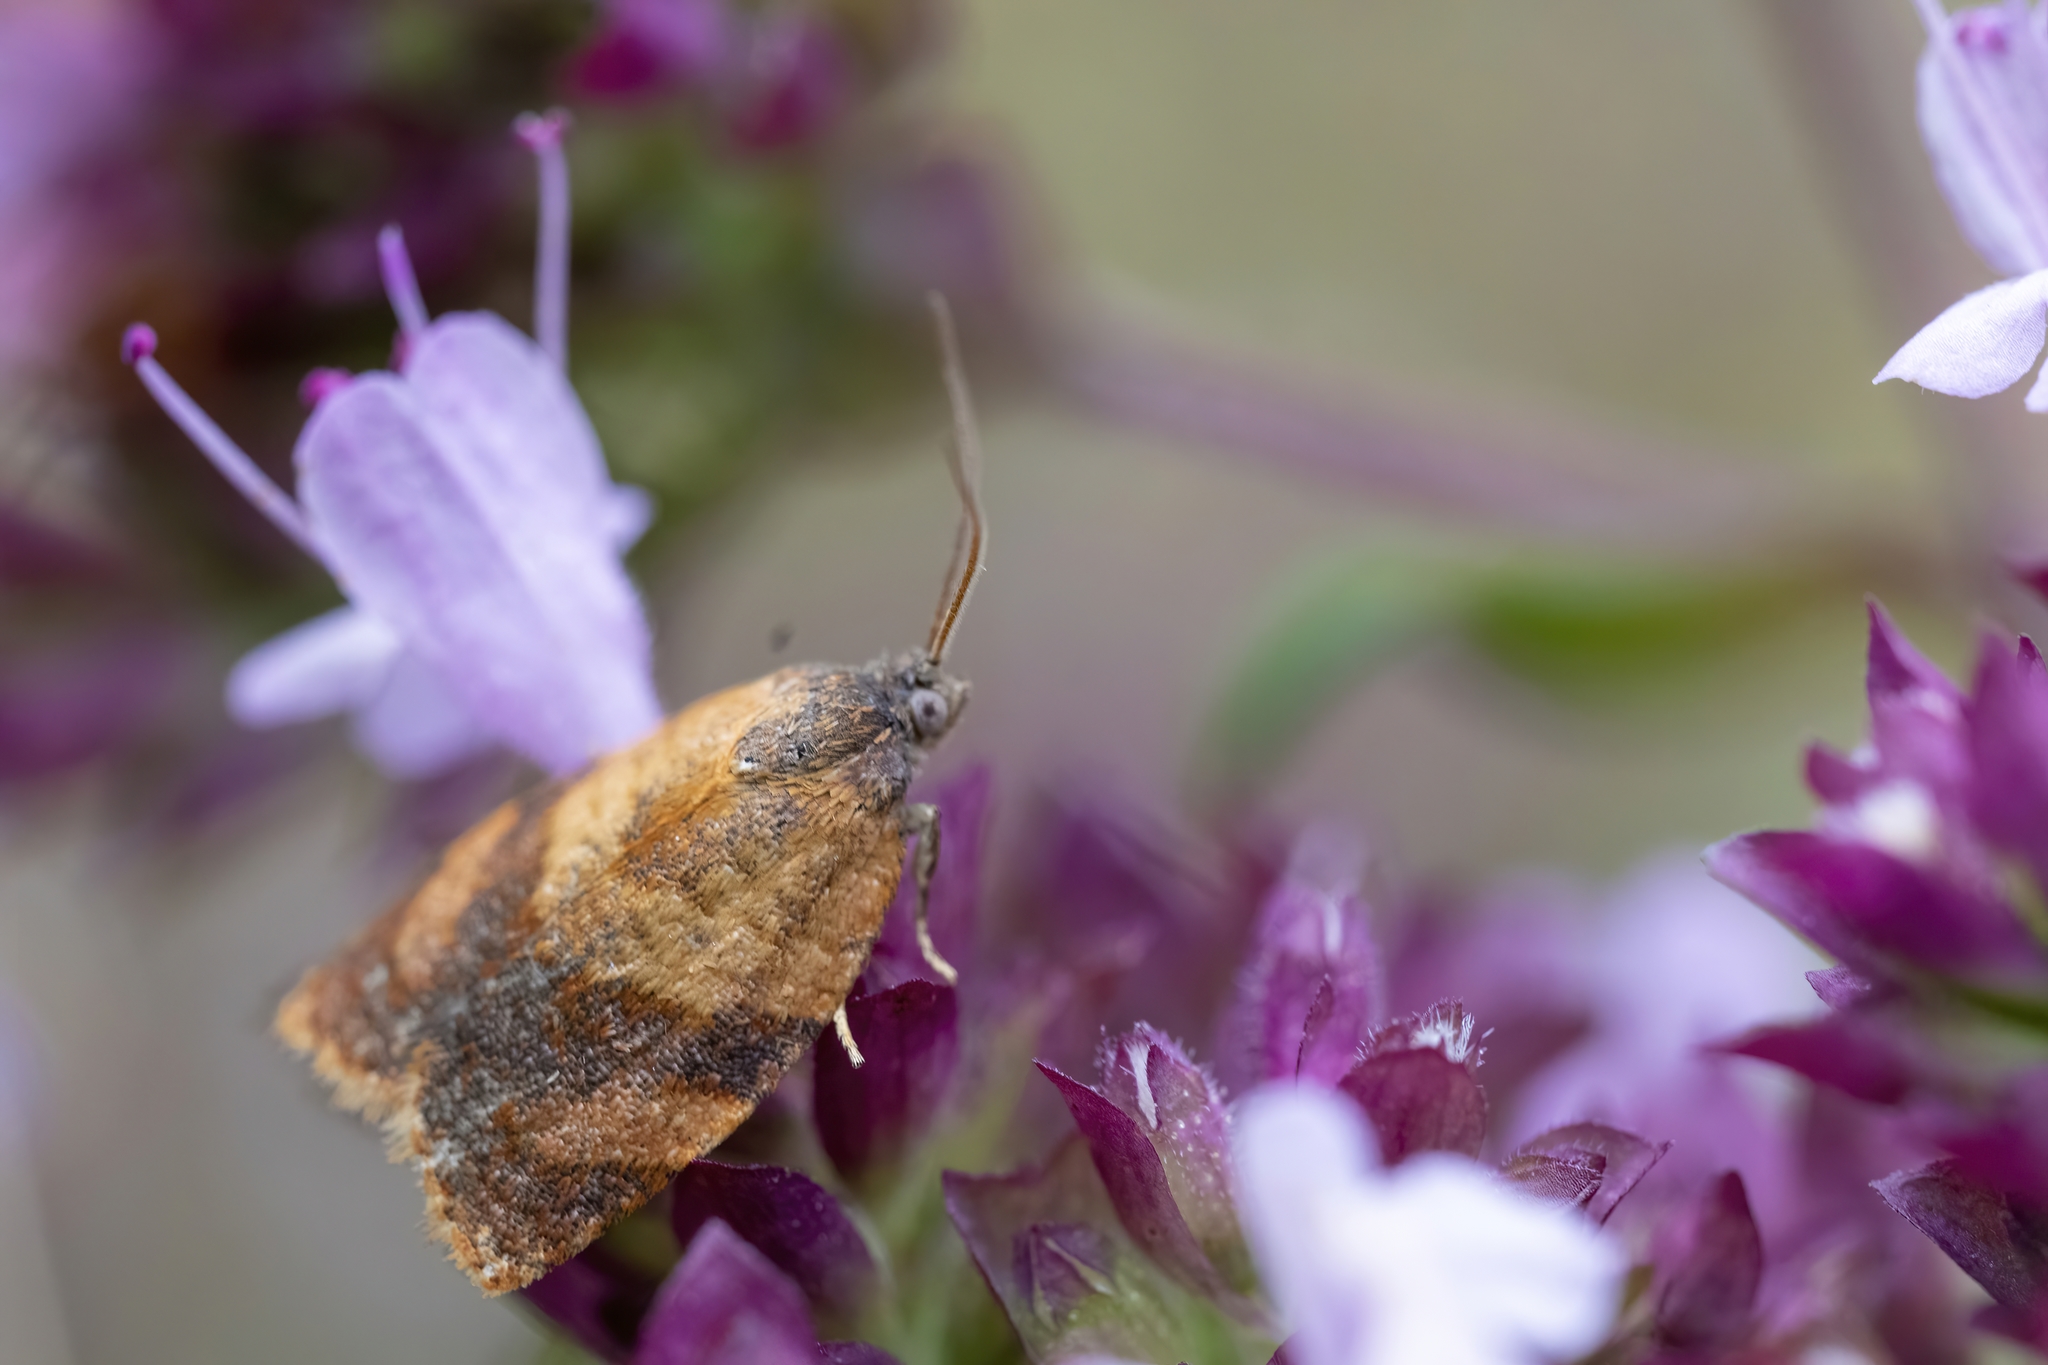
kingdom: Animalia
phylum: Arthropoda
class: Insecta
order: Lepidoptera
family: Tortricidae
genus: Cacoecimorpha
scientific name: Cacoecimorpha pronubana
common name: Carnation tortrix
